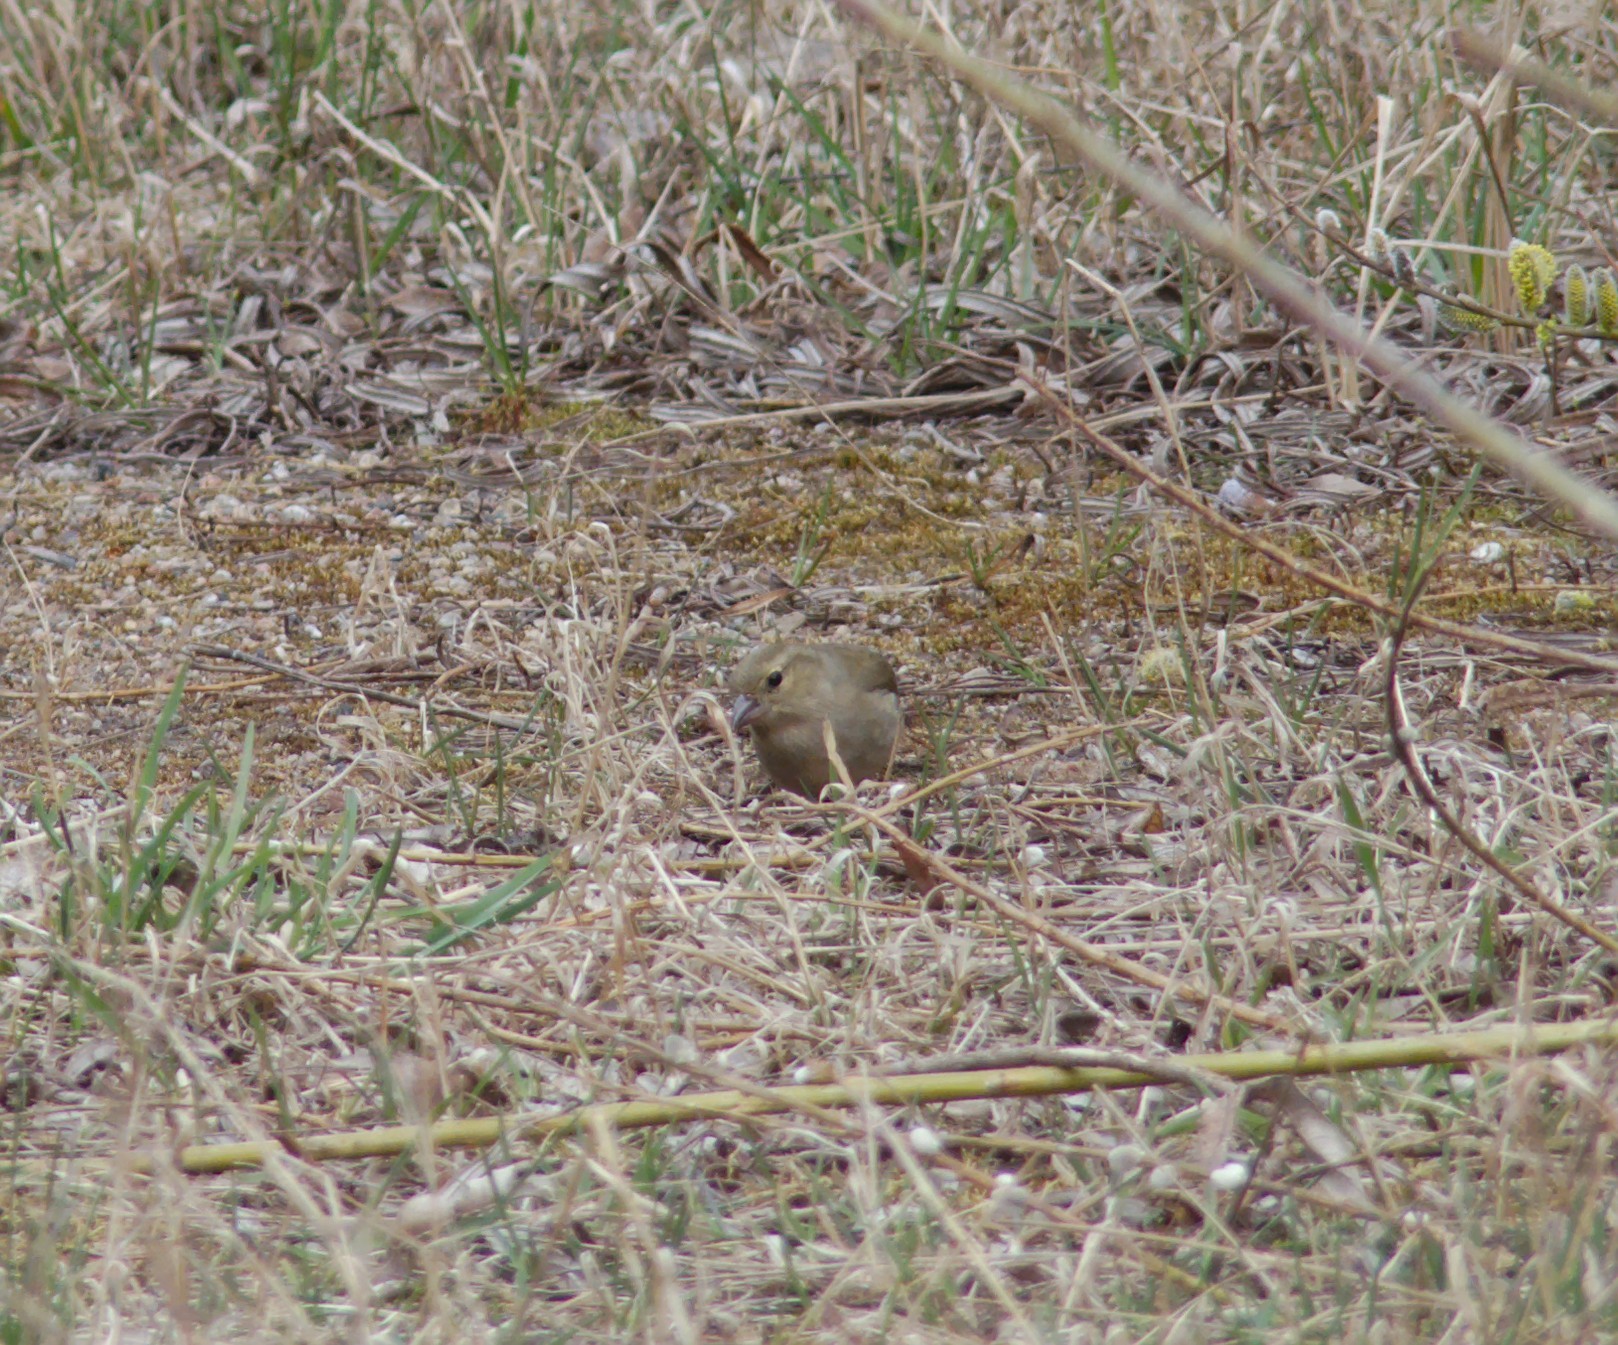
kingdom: Animalia
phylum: Chordata
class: Aves
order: Passeriformes
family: Fringillidae
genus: Fringilla
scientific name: Fringilla coelebs
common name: Common chaffinch
